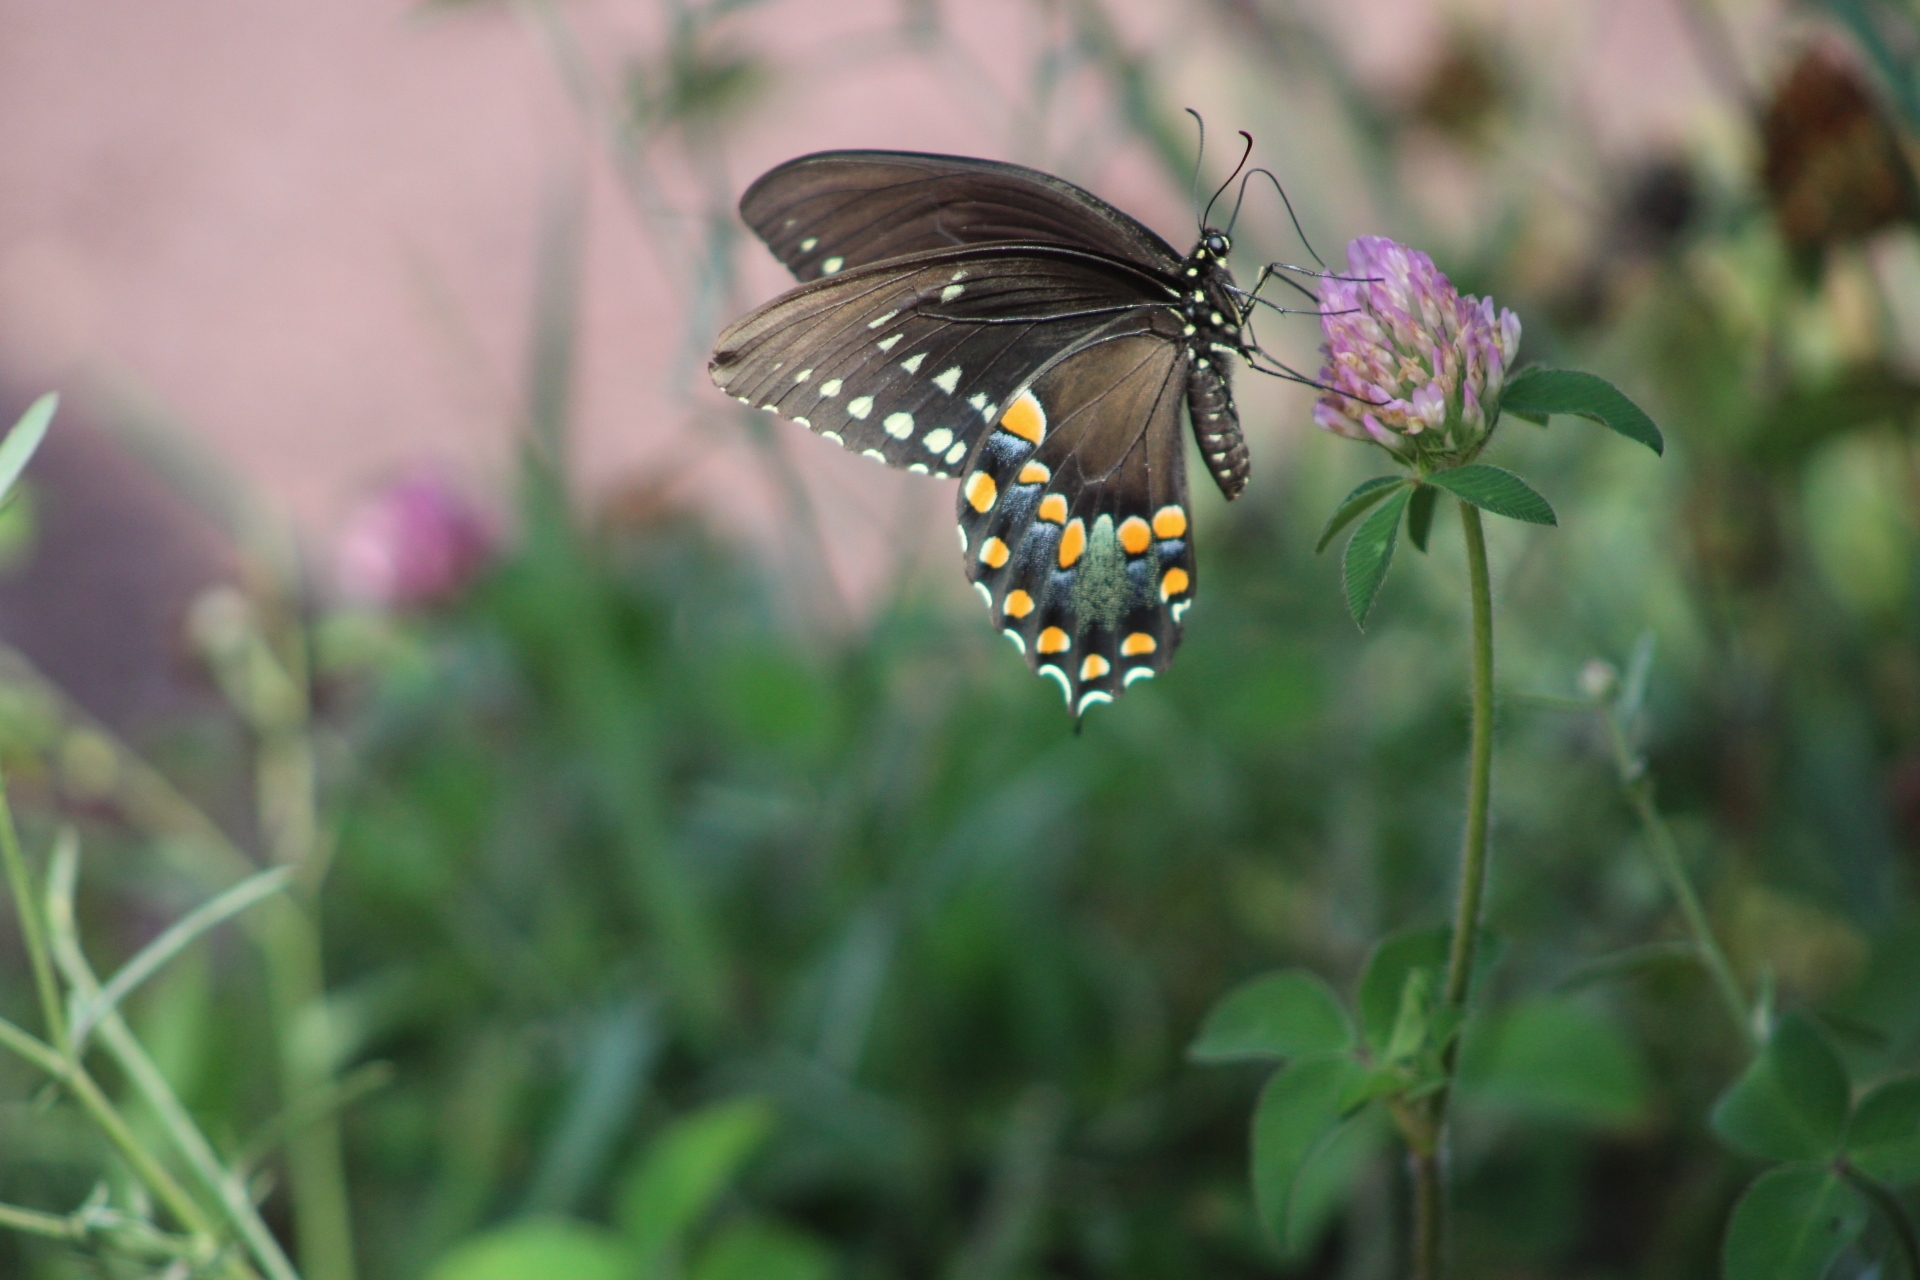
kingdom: Animalia
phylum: Arthropoda
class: Insecta
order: Lepidoptera
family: Papilionidae
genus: Papilio
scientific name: Papilio troilus
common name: Spicebush swallowtail
